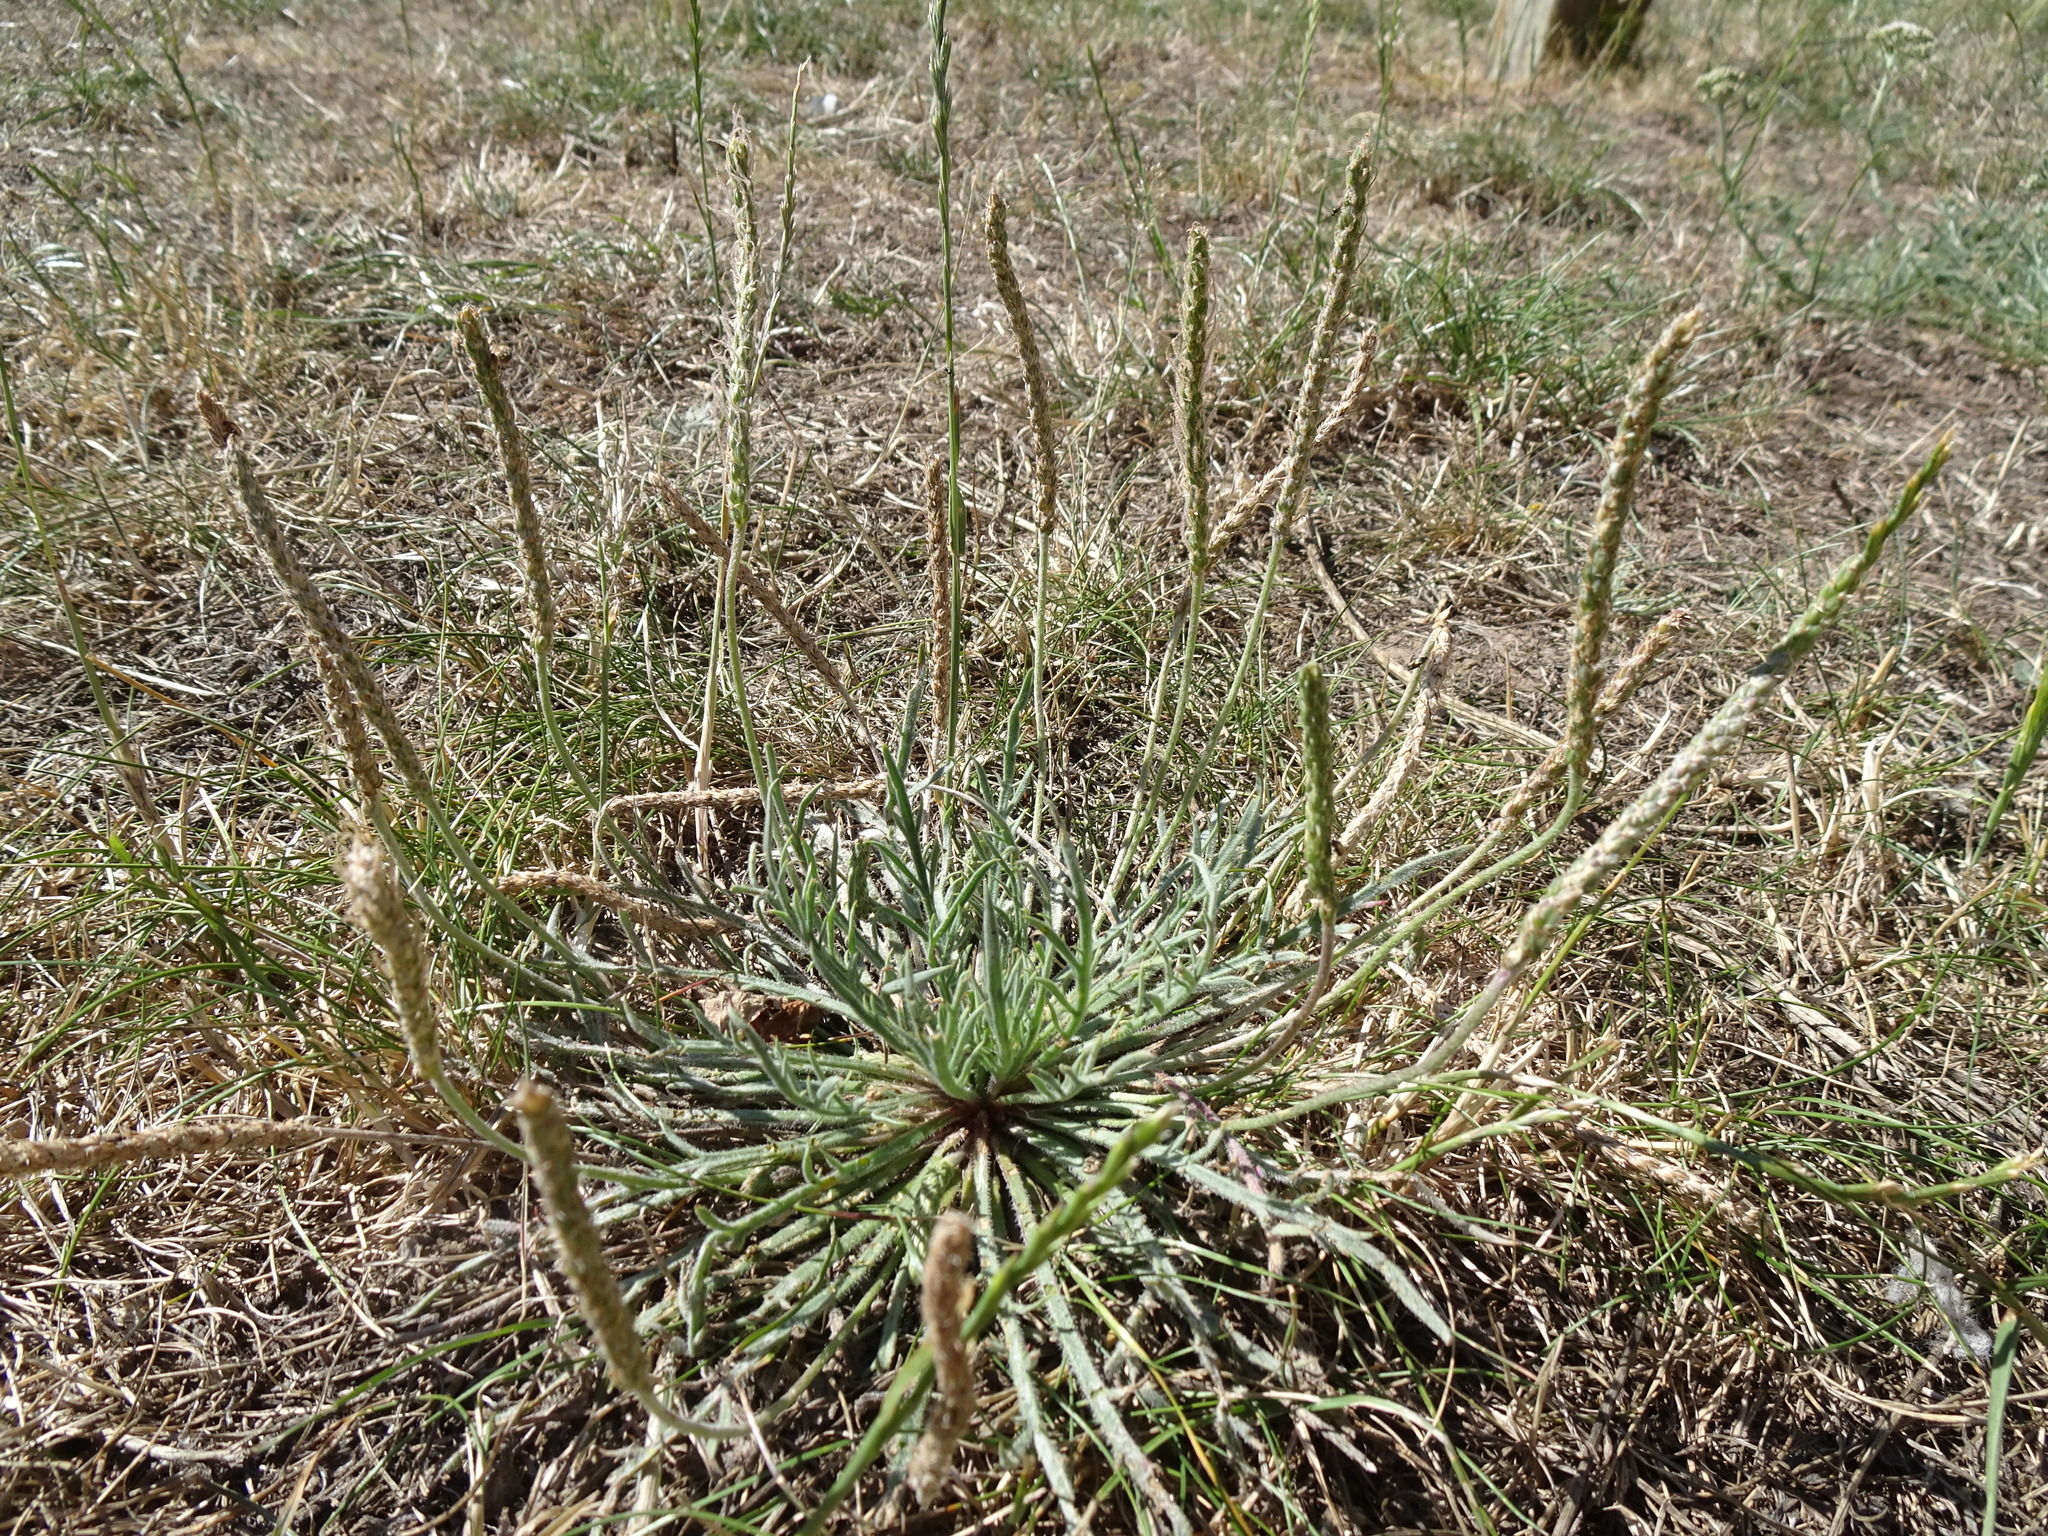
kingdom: Plantae
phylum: Tracheophyta
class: Magnoliopsida
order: Lamiales
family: Plantaginaceae
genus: Plantago
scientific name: Plantago coronopus
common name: Buck's-horn plantain
